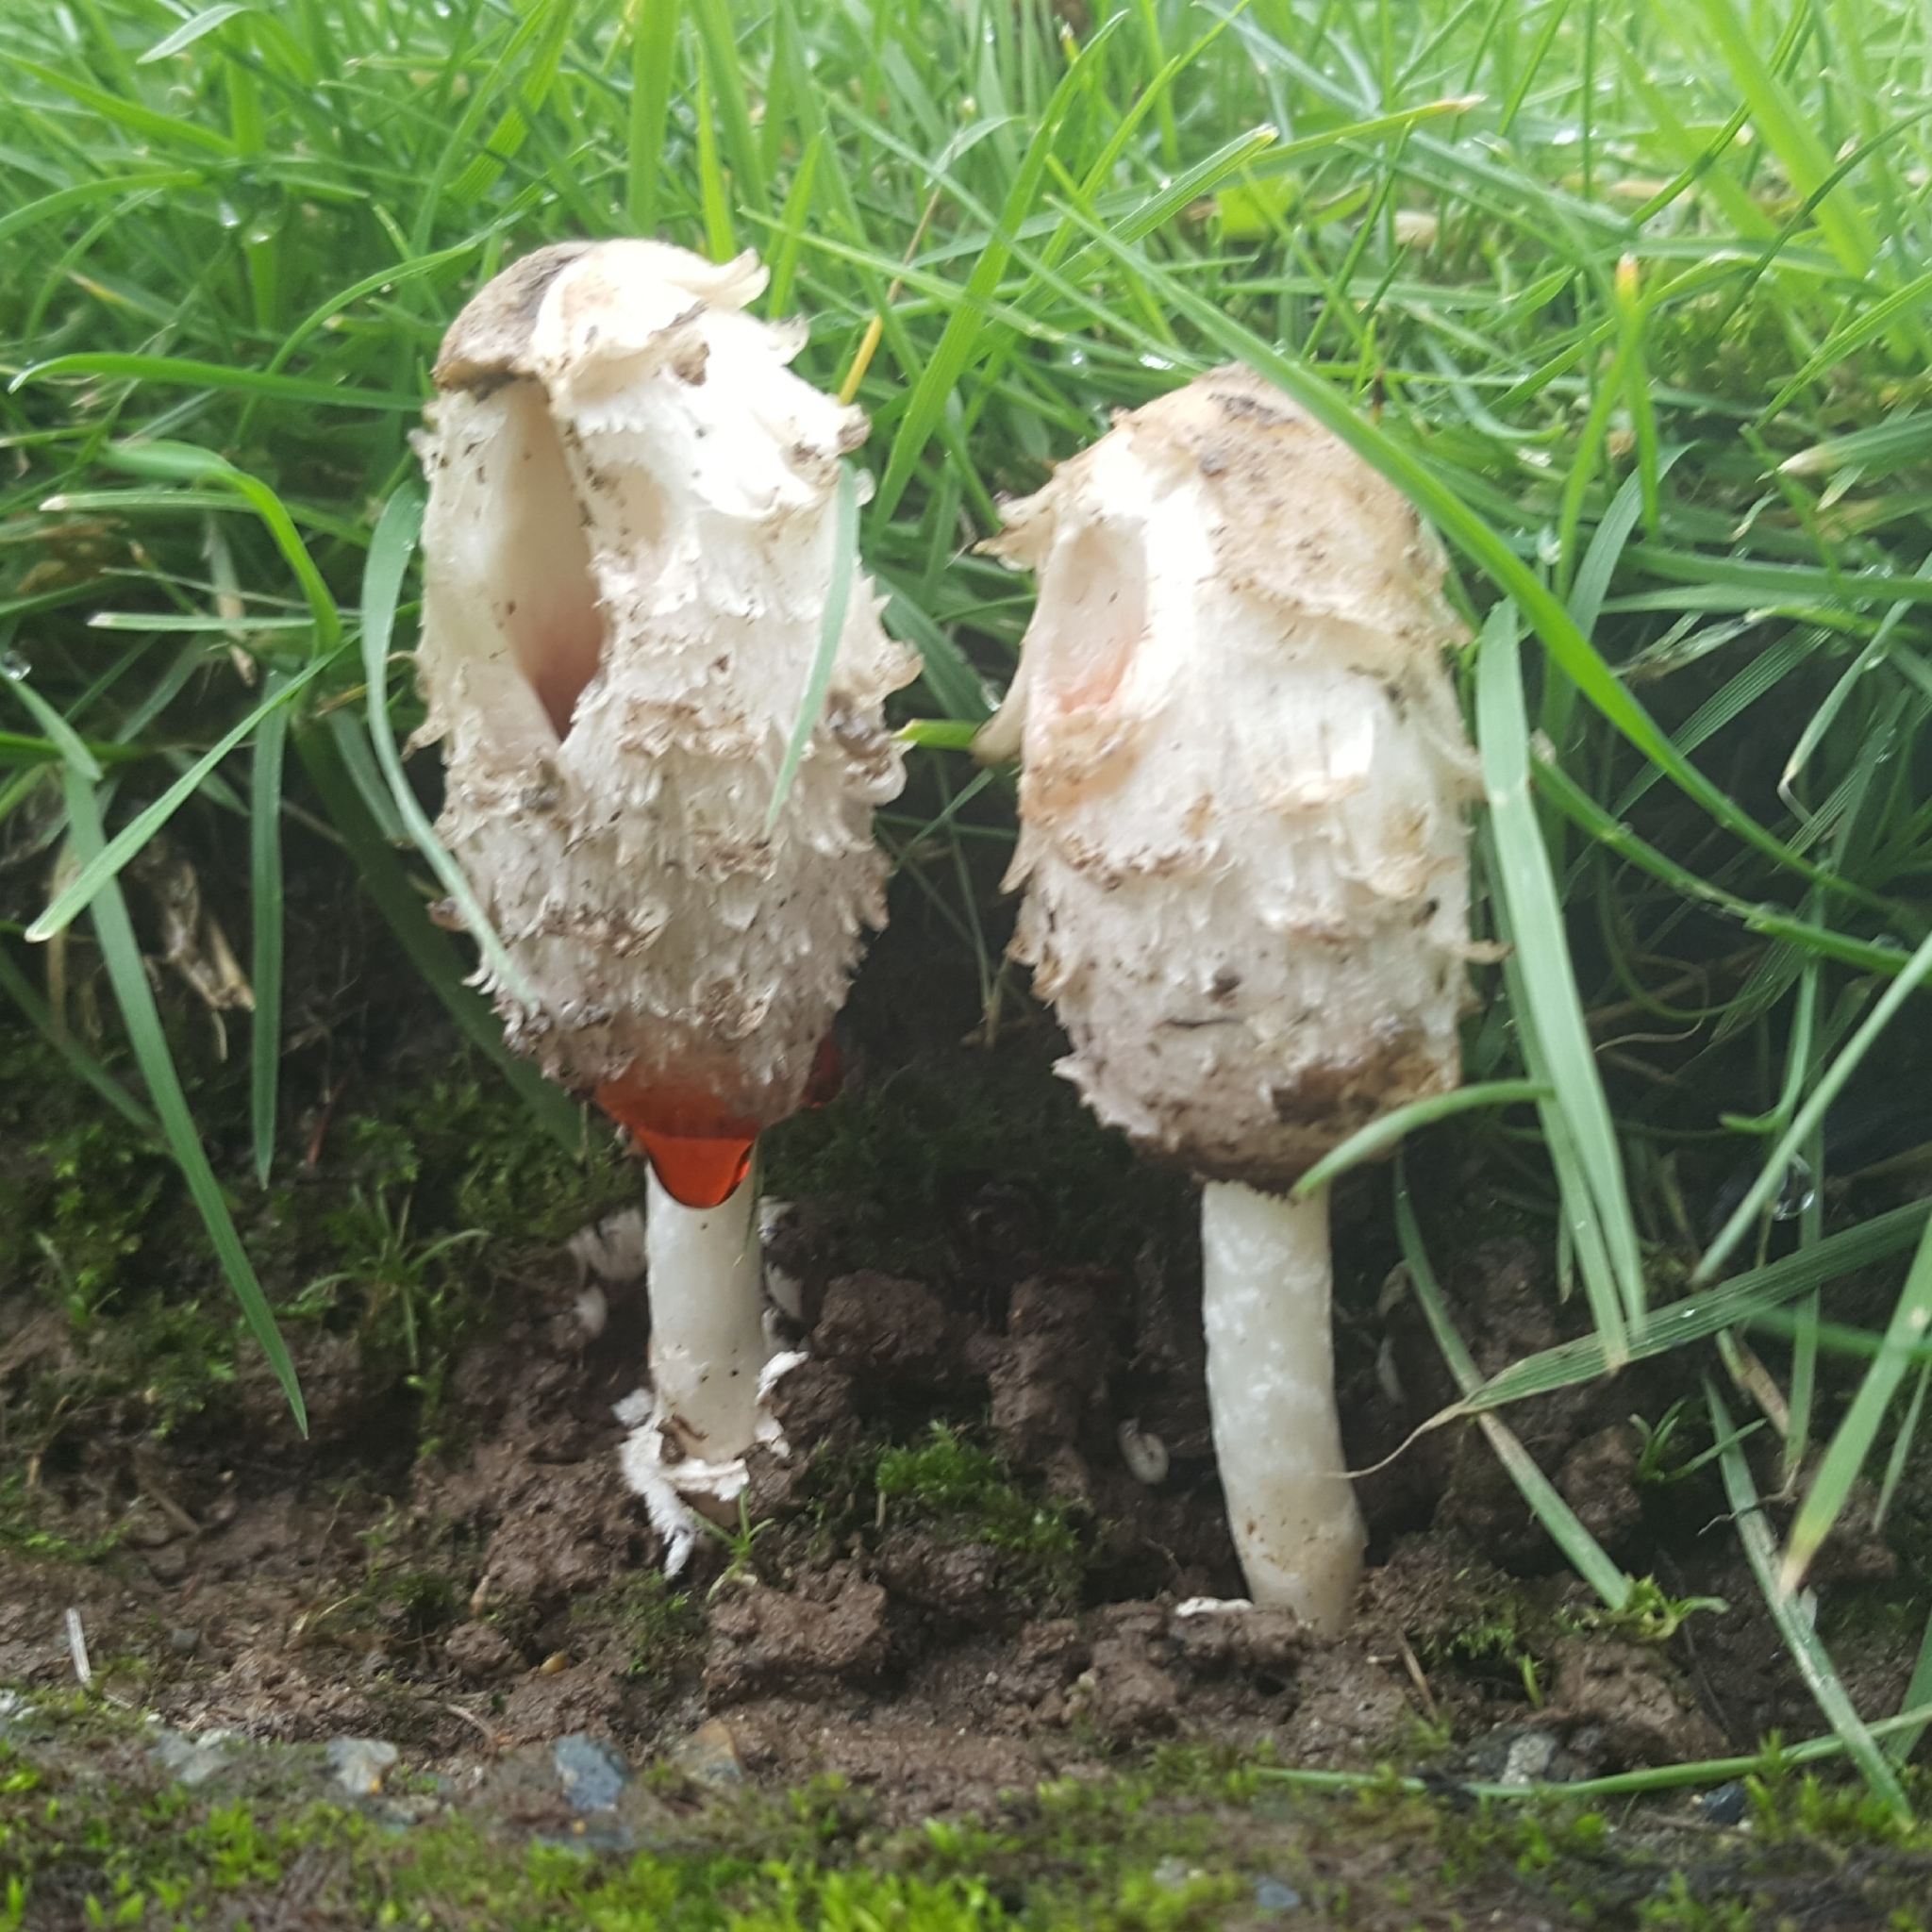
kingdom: Fungi
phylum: Basidiomycota
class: Agaricomycetes
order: Agaricales
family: Agaricaceae
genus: Coprinus
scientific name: Coprinus comatus
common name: Lawyer's wig
